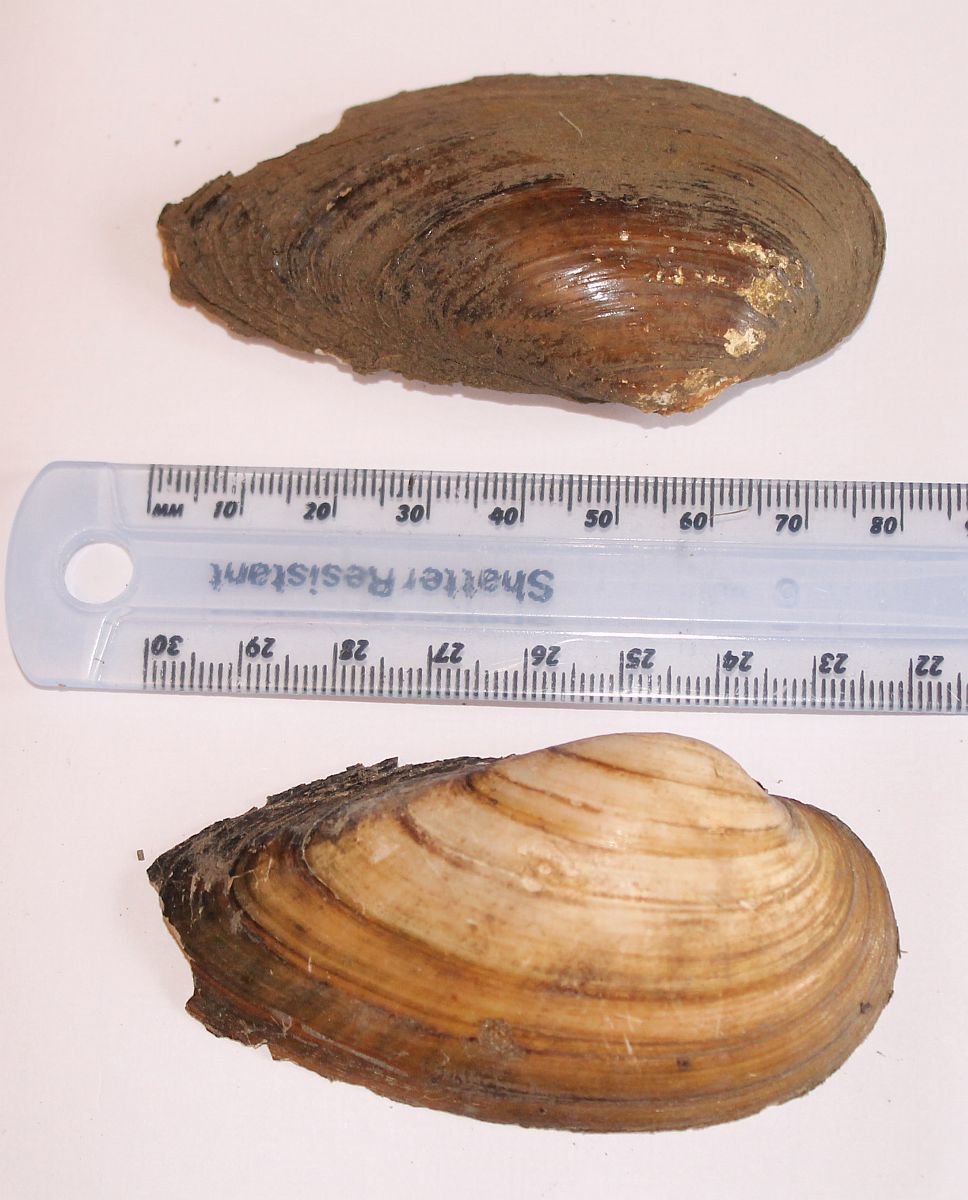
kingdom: Animalia
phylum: Mollusca
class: Bivalvia
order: Unionida
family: Unionidae
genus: Unio
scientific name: Unio tumidus
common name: Swollen river mussel
